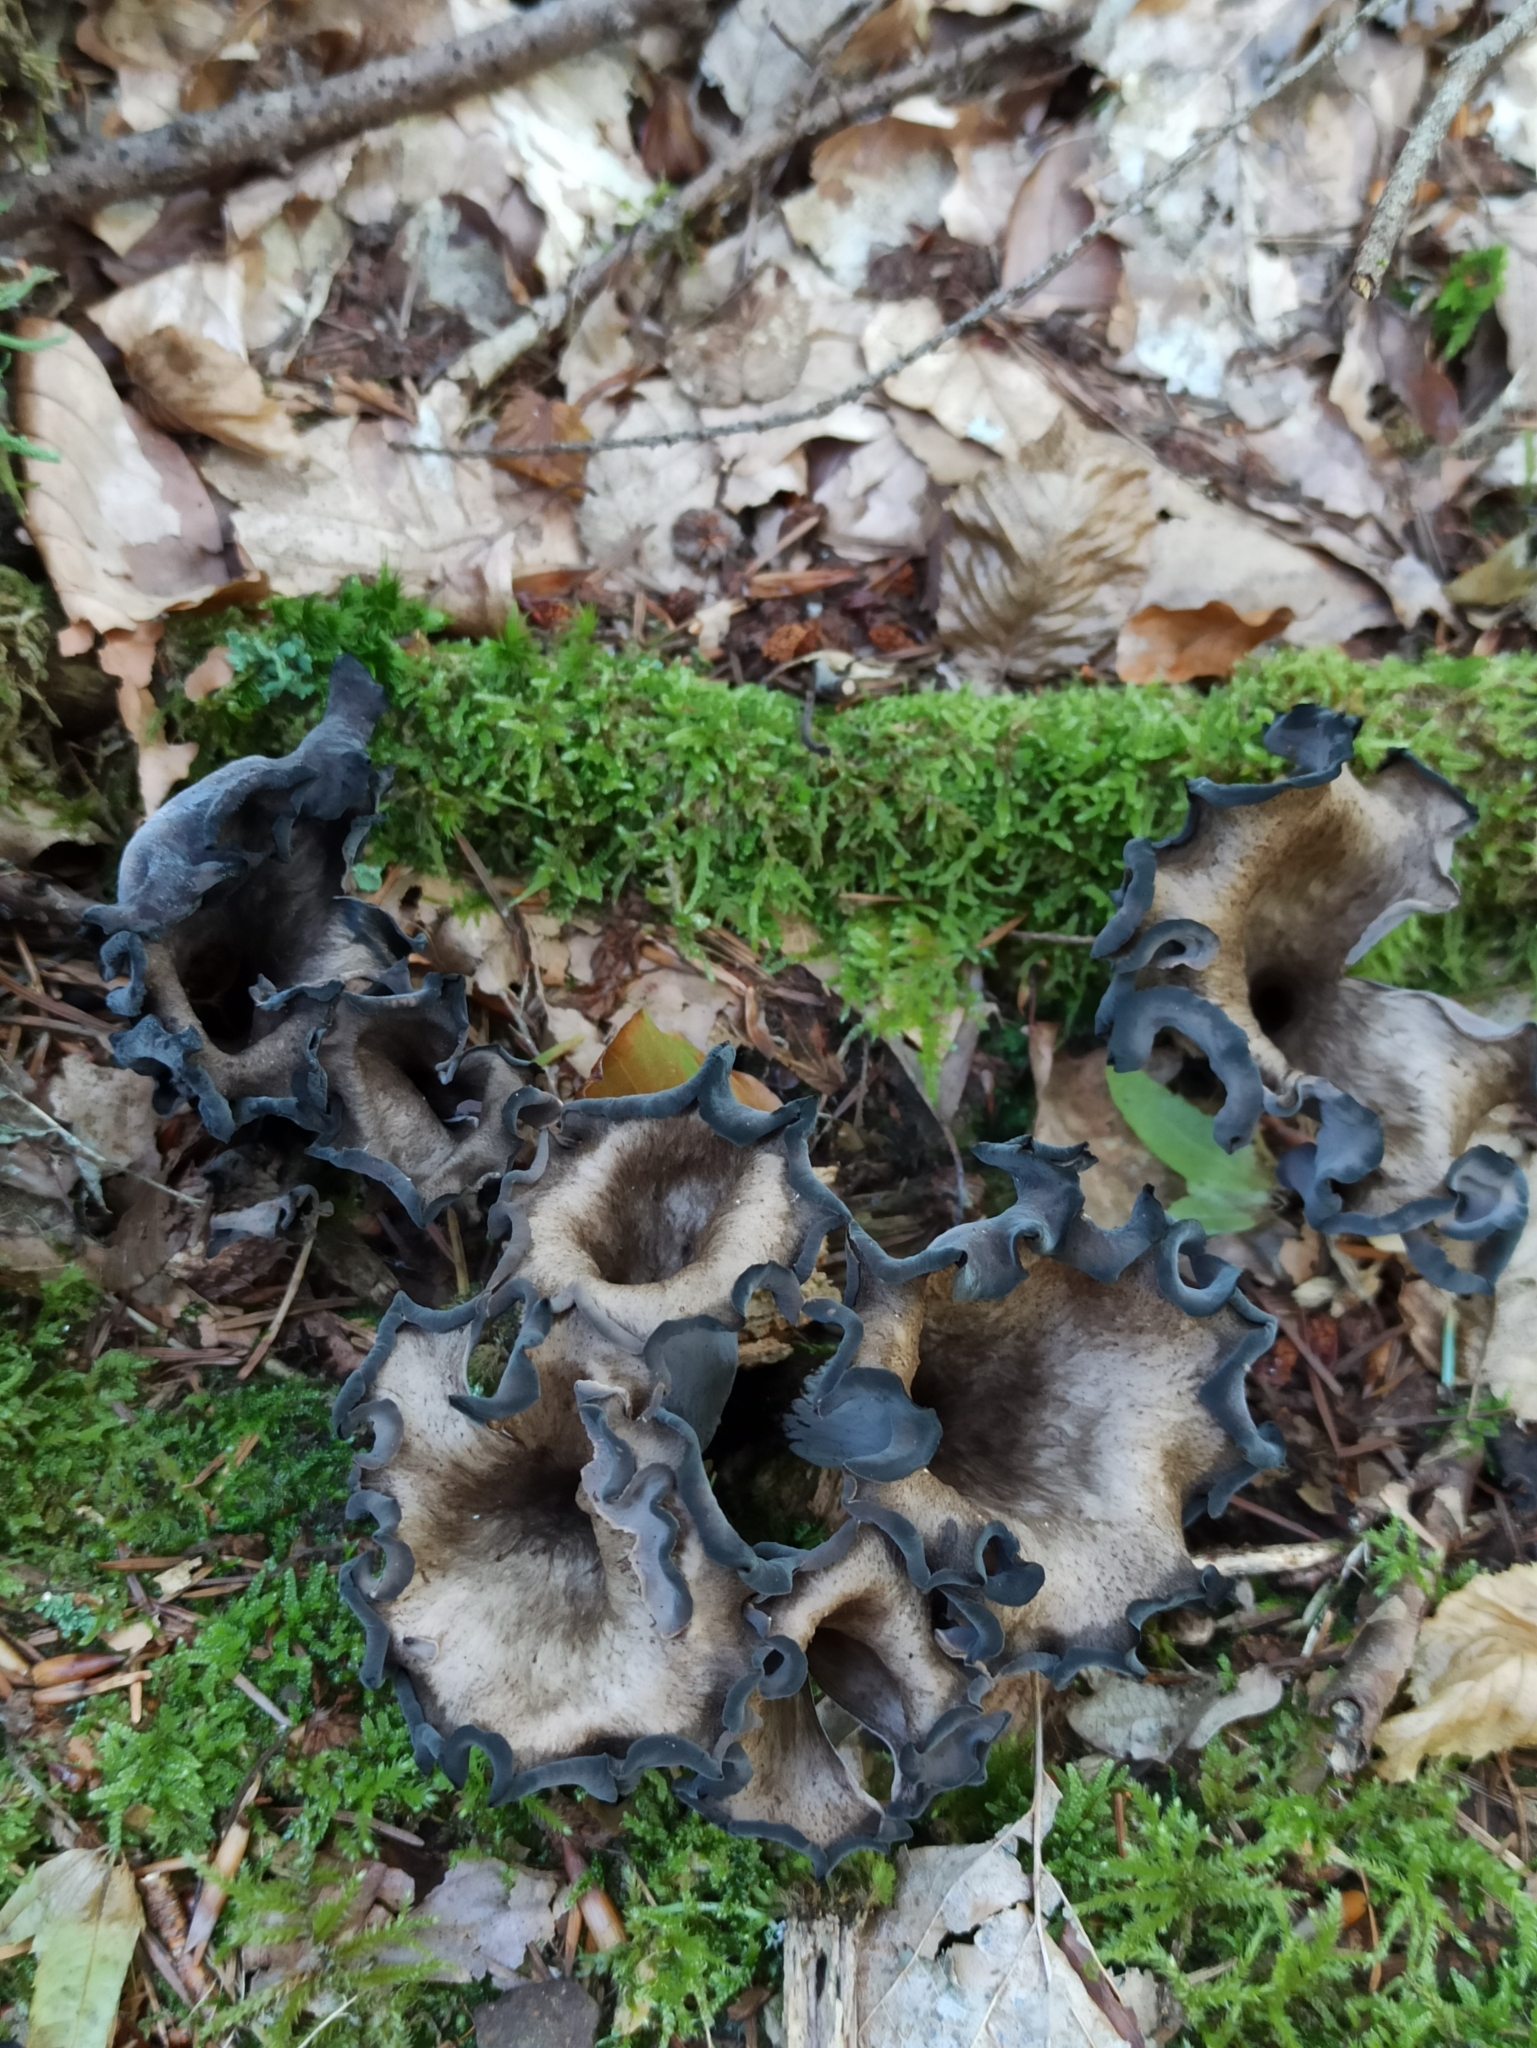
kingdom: Fungi
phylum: Basidiomycota
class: Agaricomycetes
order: Cantharellales
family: Hydnaceae
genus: Craterellus
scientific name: Craterellus cornucopioides
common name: Horn of plenty
